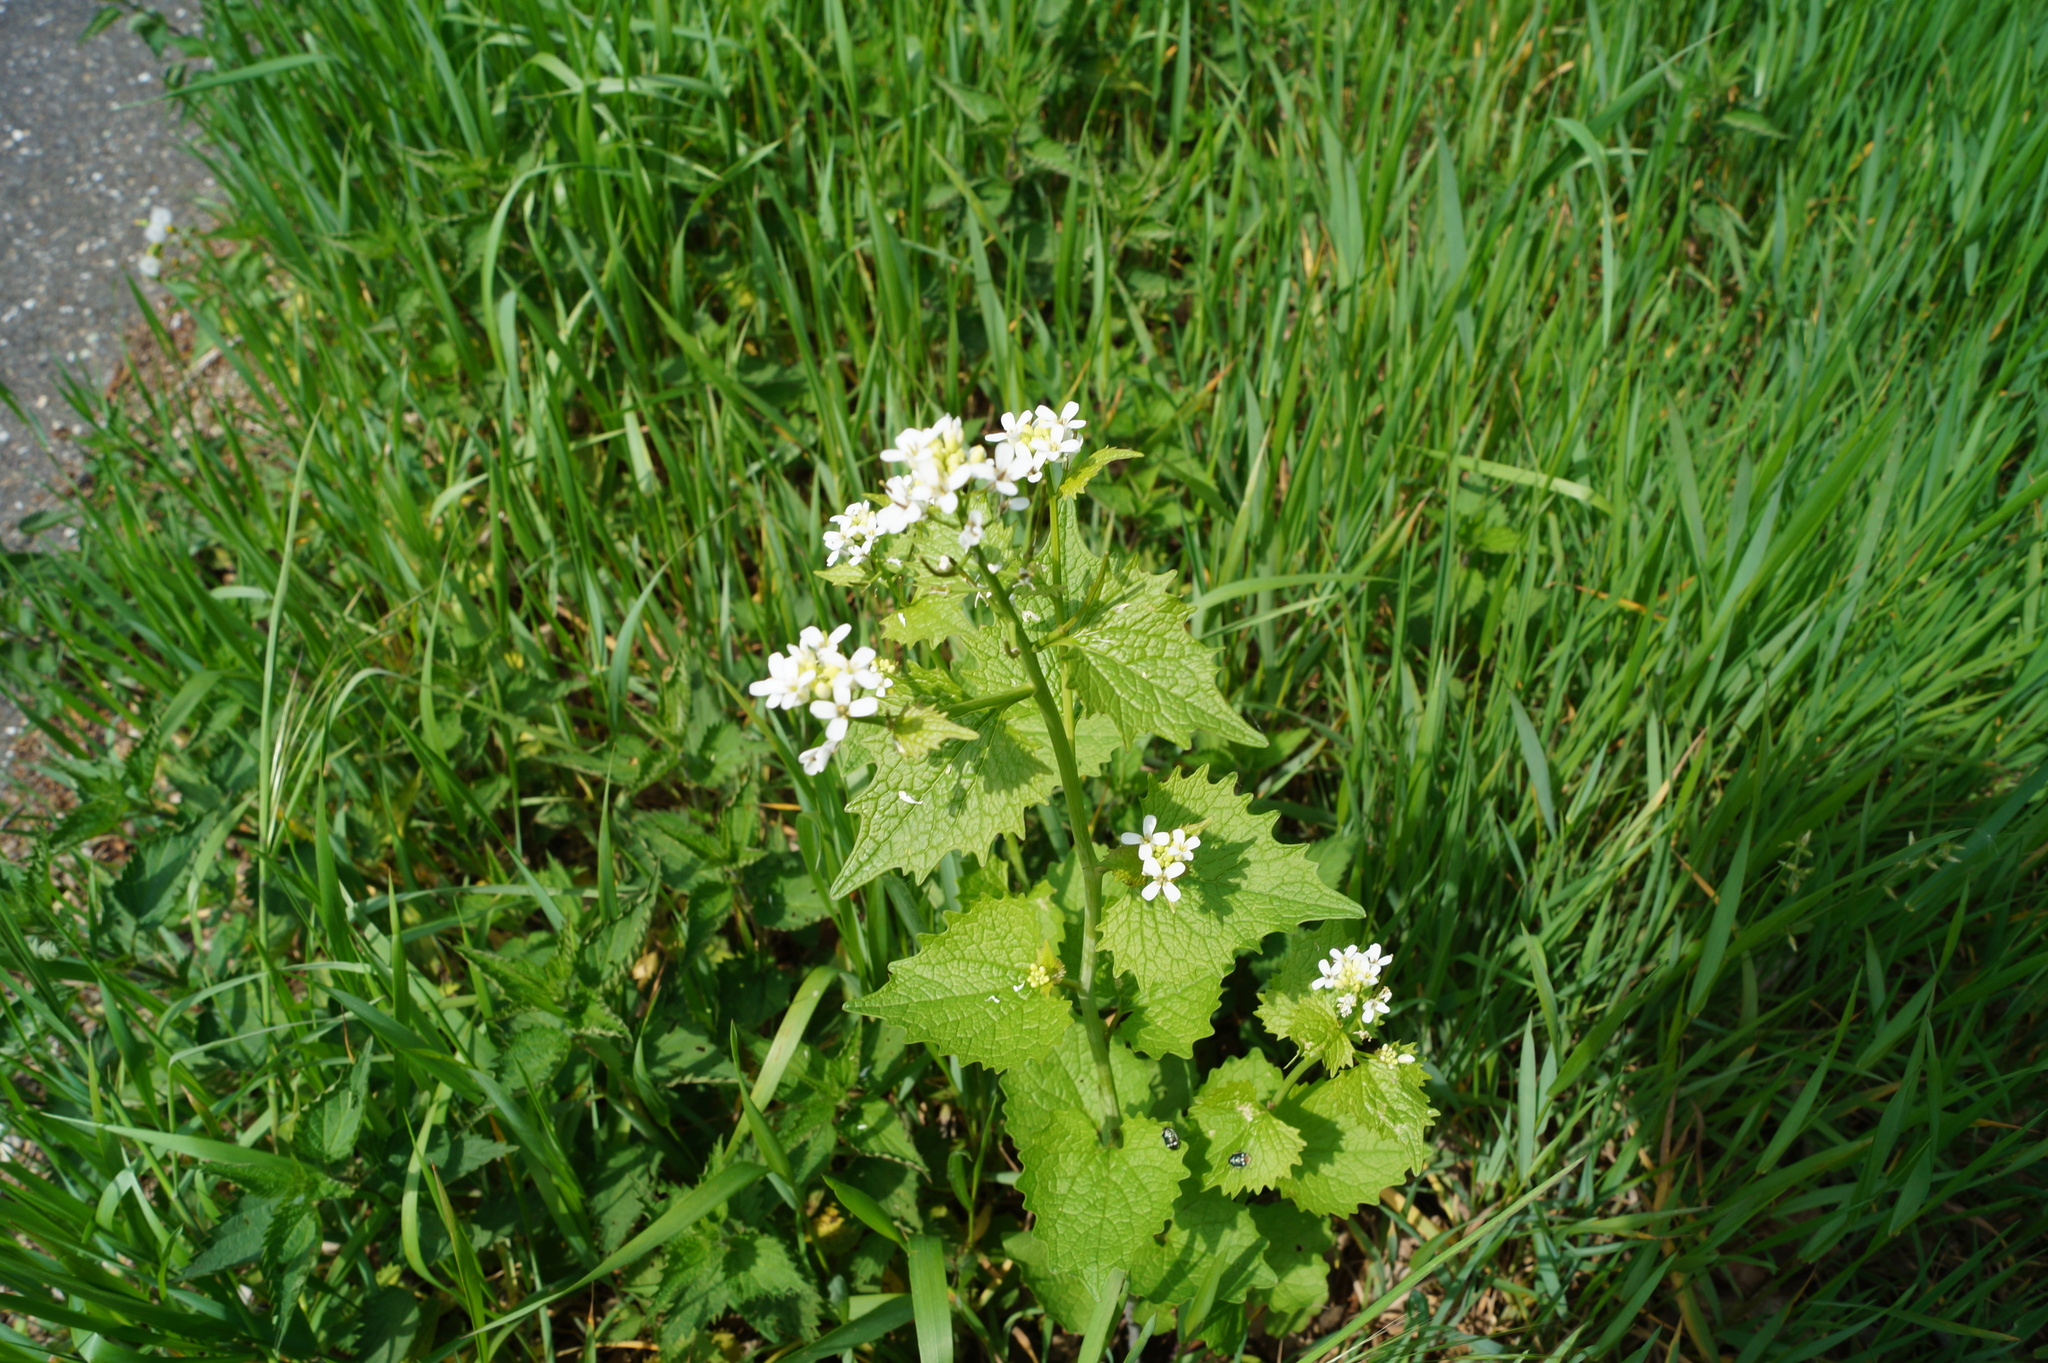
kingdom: Plantae
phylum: Tracheophyta
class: Magnoliopsida
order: Brassicales
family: Brassicaceae
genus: Alliaria
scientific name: Alliaria petiolata
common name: Garlic mustard
